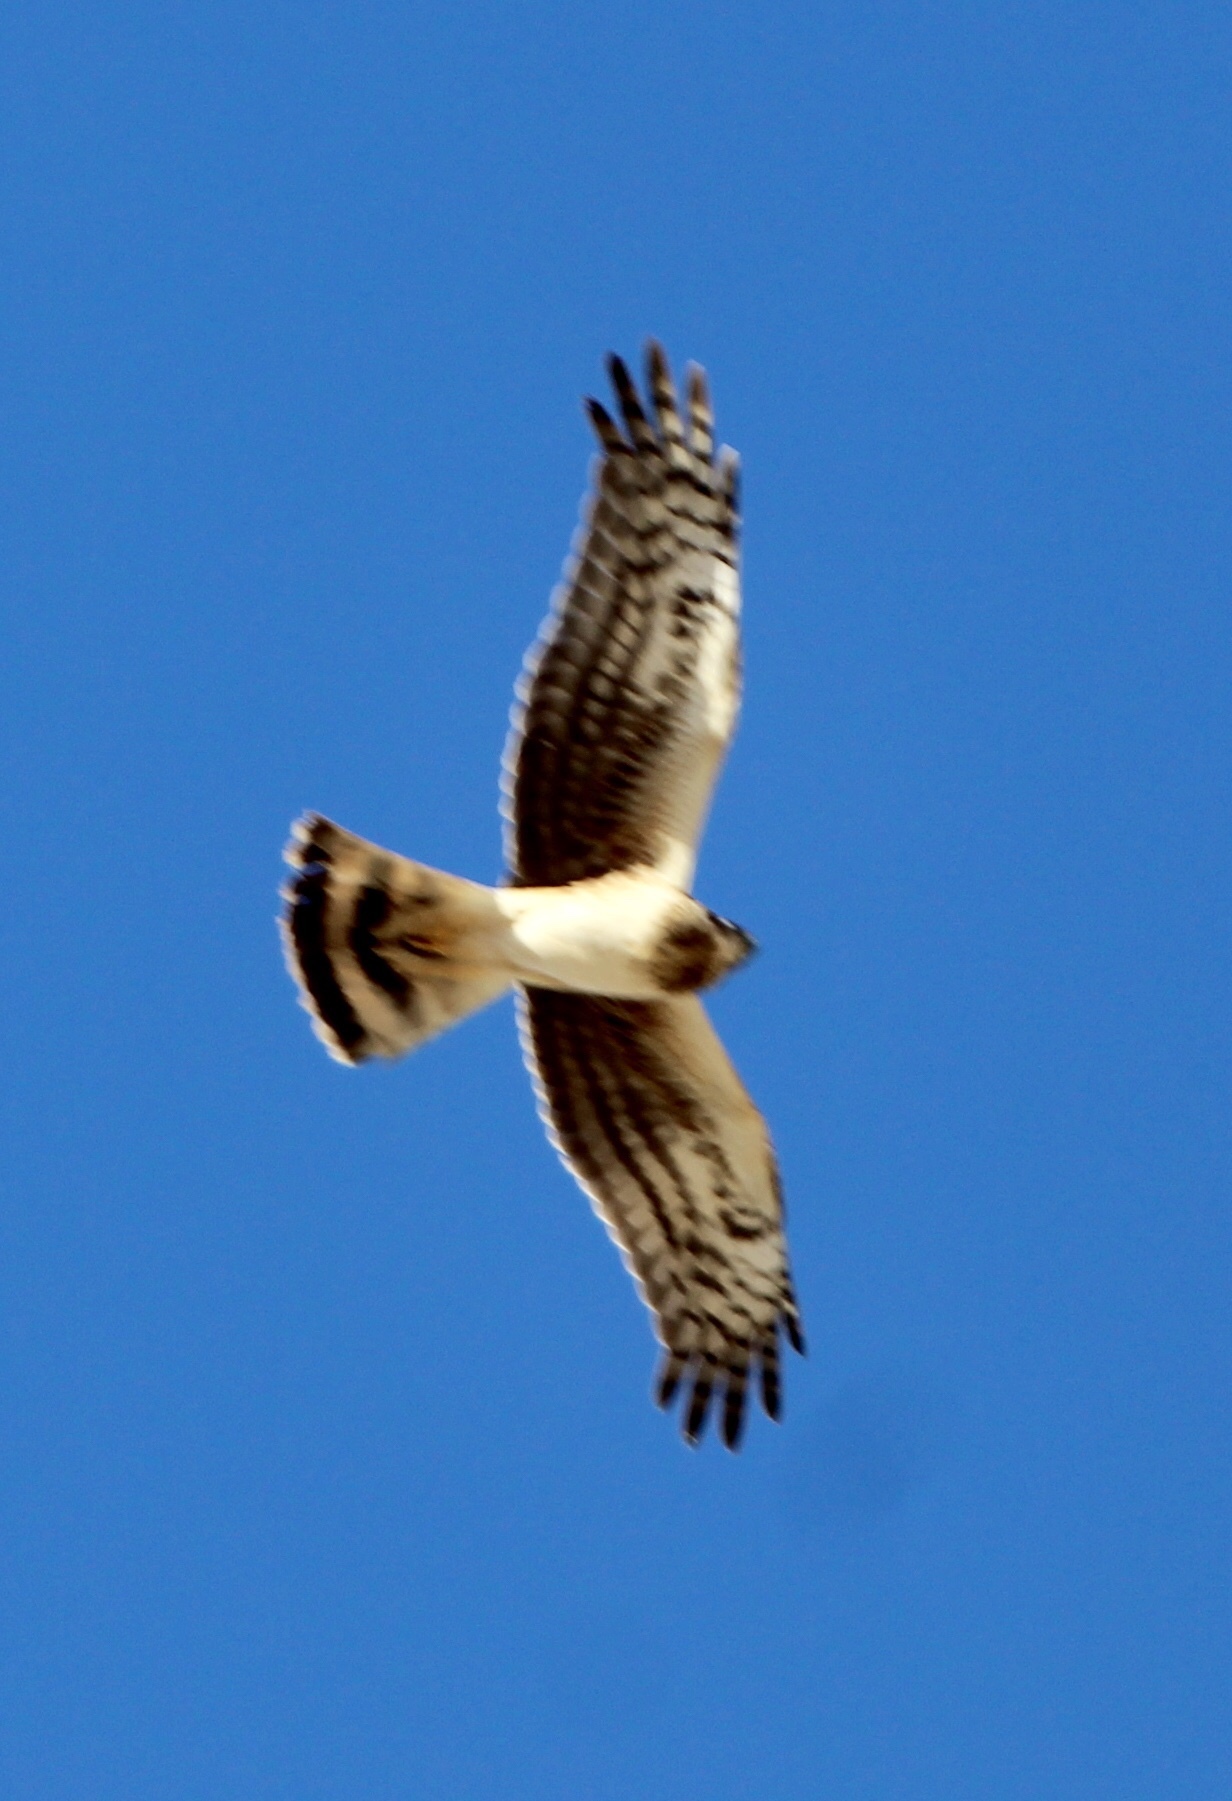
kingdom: Animalia
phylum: Chordata
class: Aves
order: Accipitriformes
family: Accipitridae
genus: Circus
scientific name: Circus cyaneus
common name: Hen harrier
